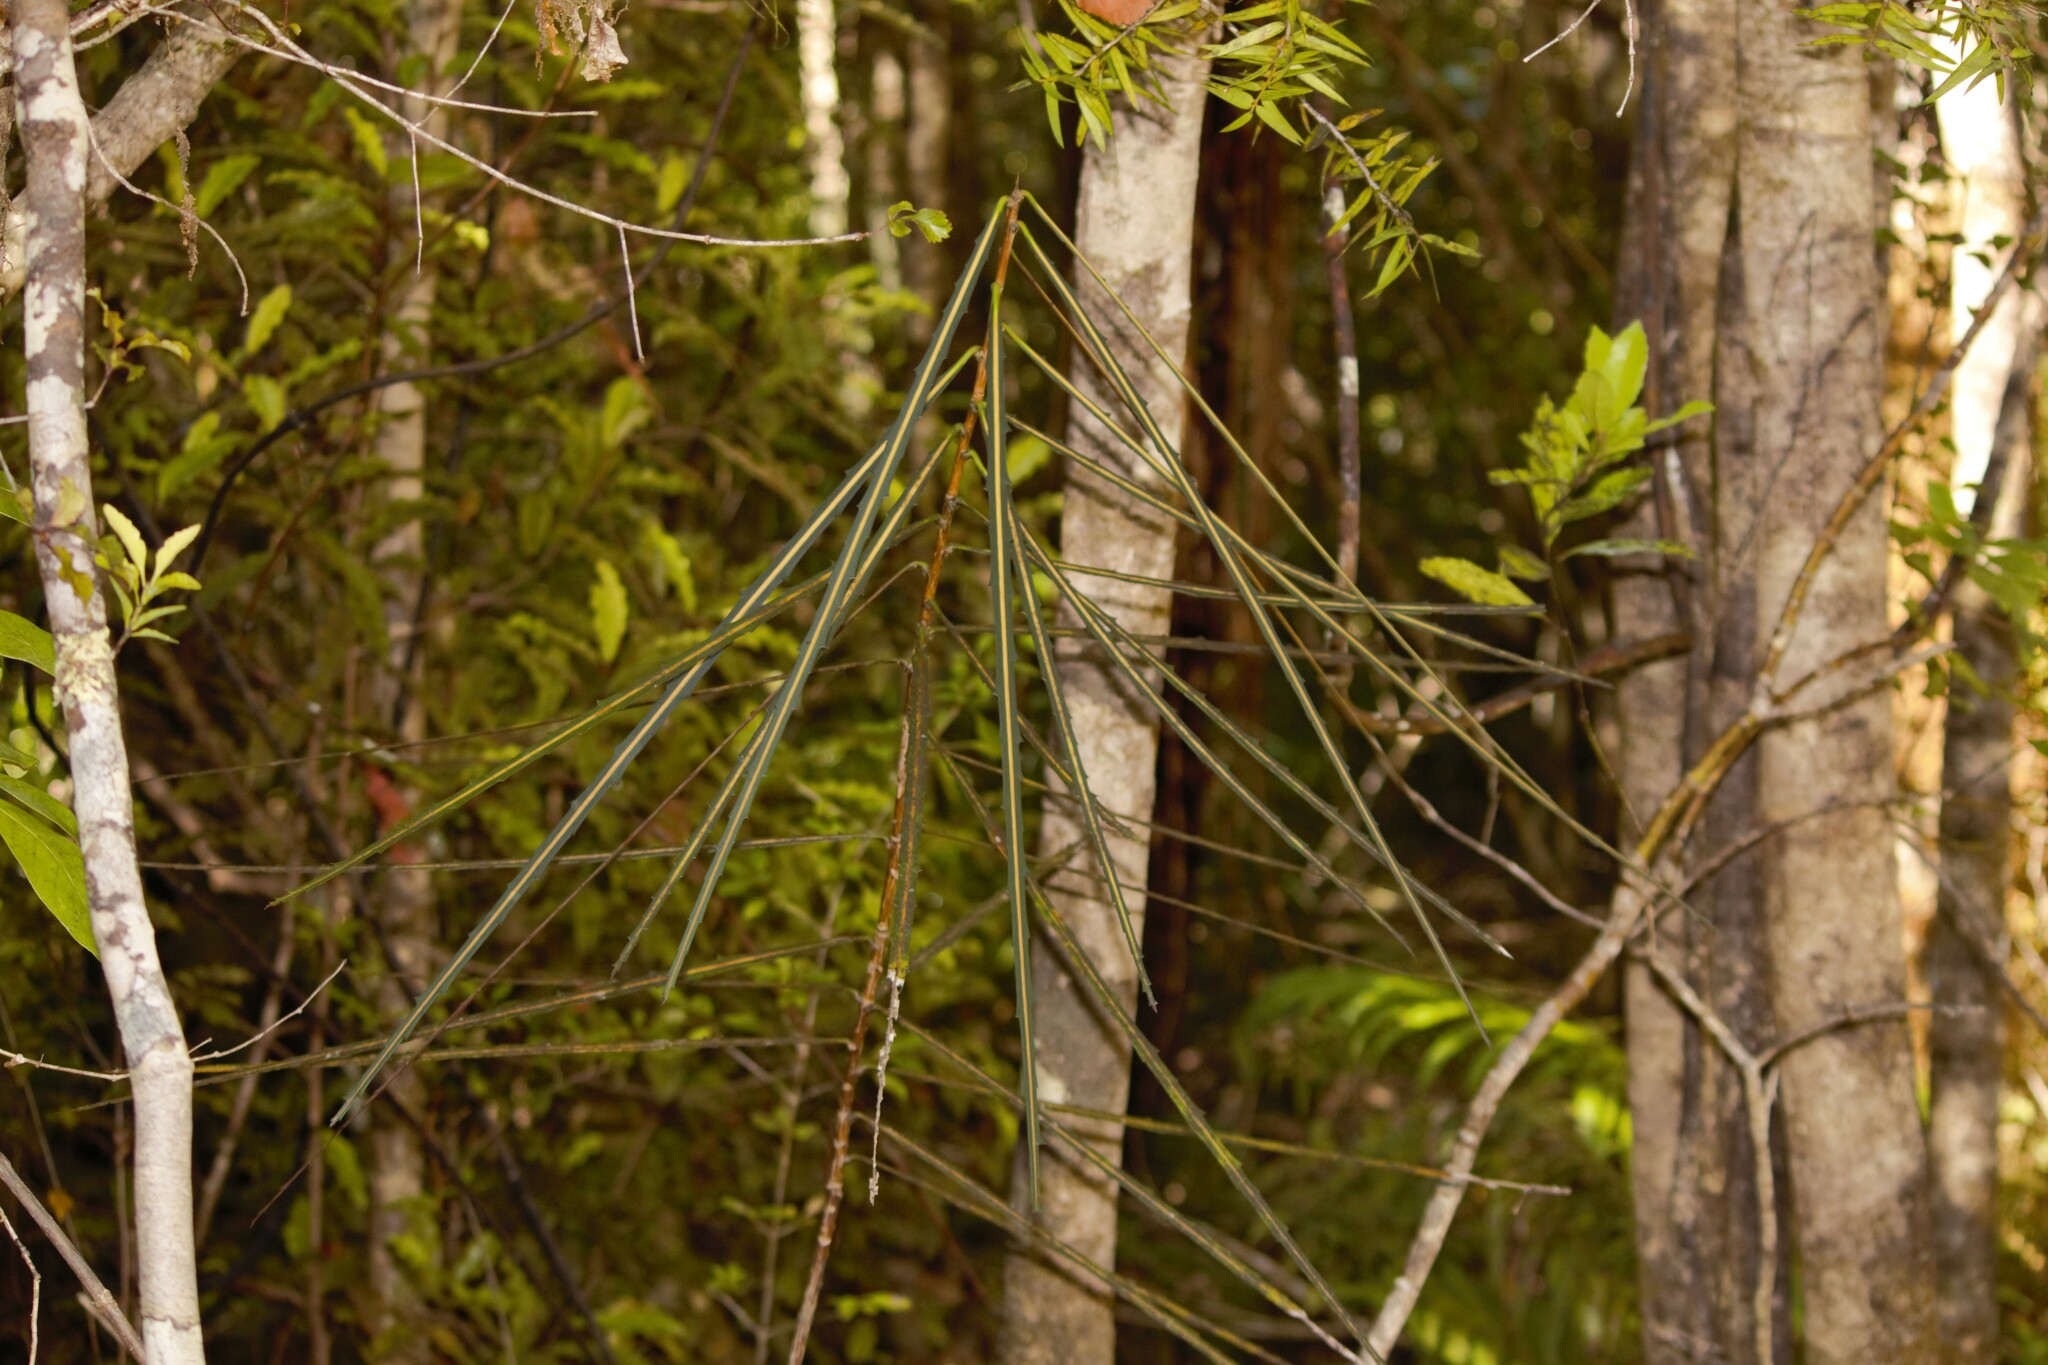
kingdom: Plantae
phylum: Tracheophyta
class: Magnoliopsida
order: Apiales
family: Araliaceae
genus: Pseudopanax
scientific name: Pseudopanax crassifolius
